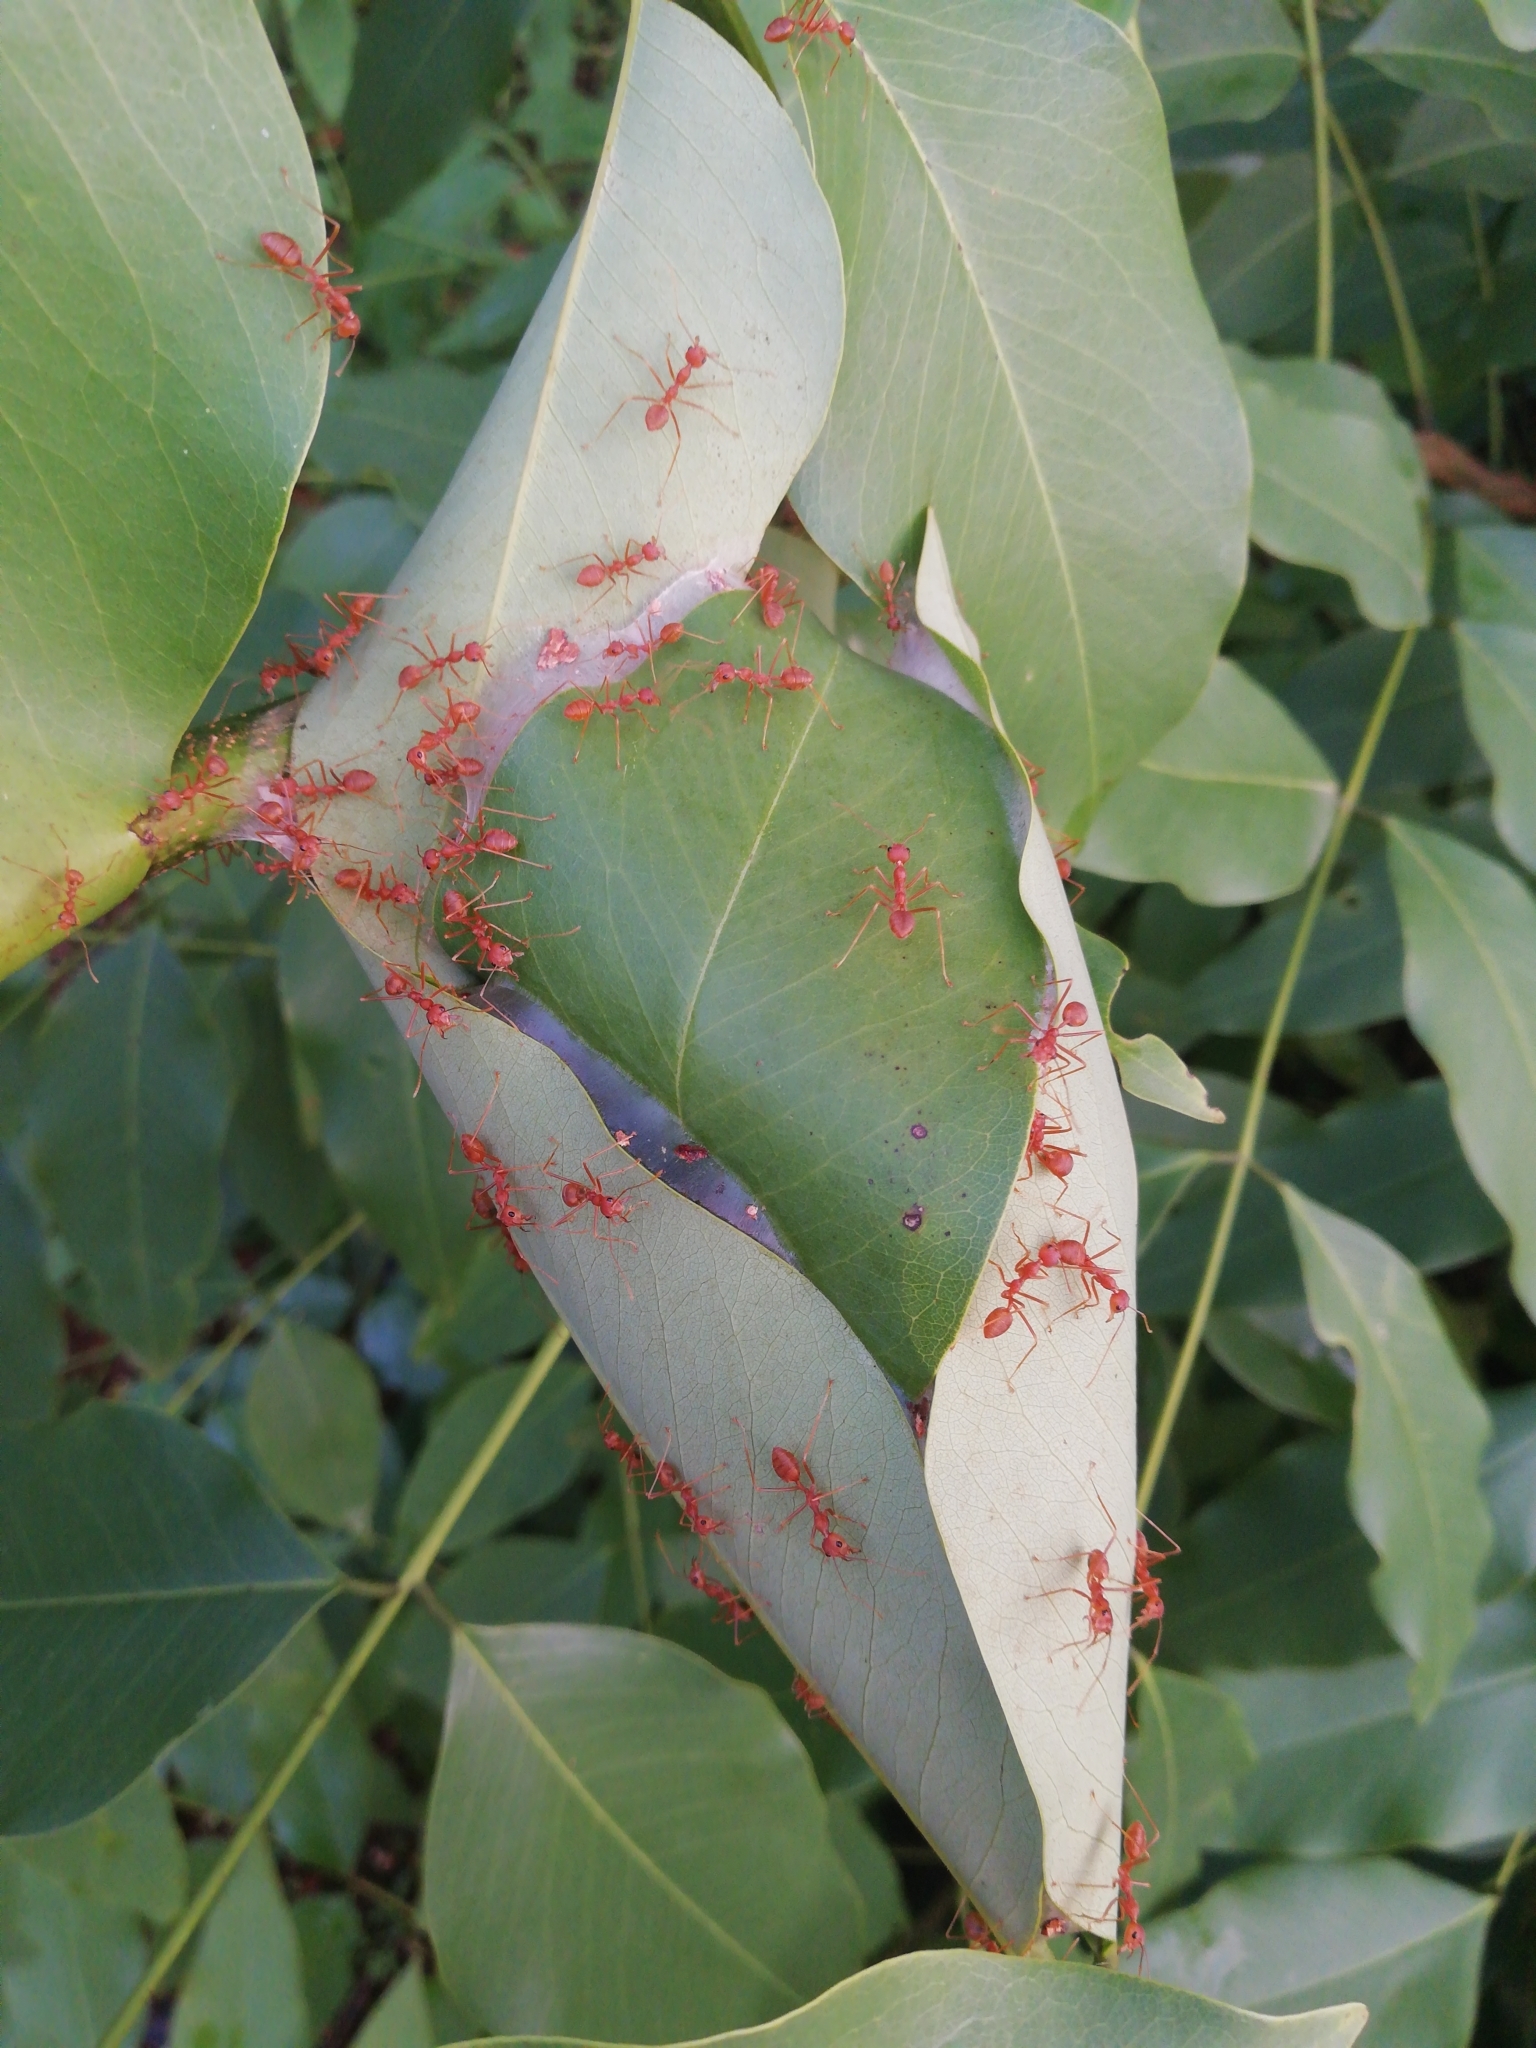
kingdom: Animalia
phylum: Arthropoda
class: Insecta
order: Hymenoptera
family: Formicidae
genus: Oecophylla
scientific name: Oecophylla smaragdina
